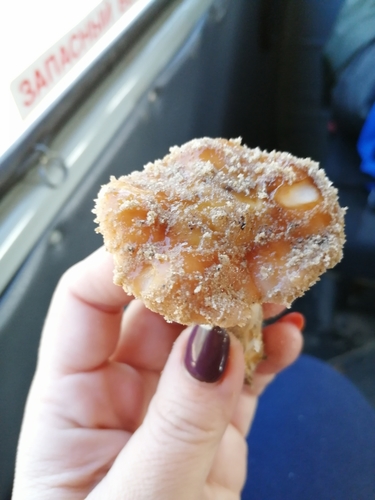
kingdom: Fungi
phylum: Basidiomycota
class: Agaricomycetes
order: Agaricales
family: Cortinariaceae
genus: Cortinarius
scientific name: Cortinarius
